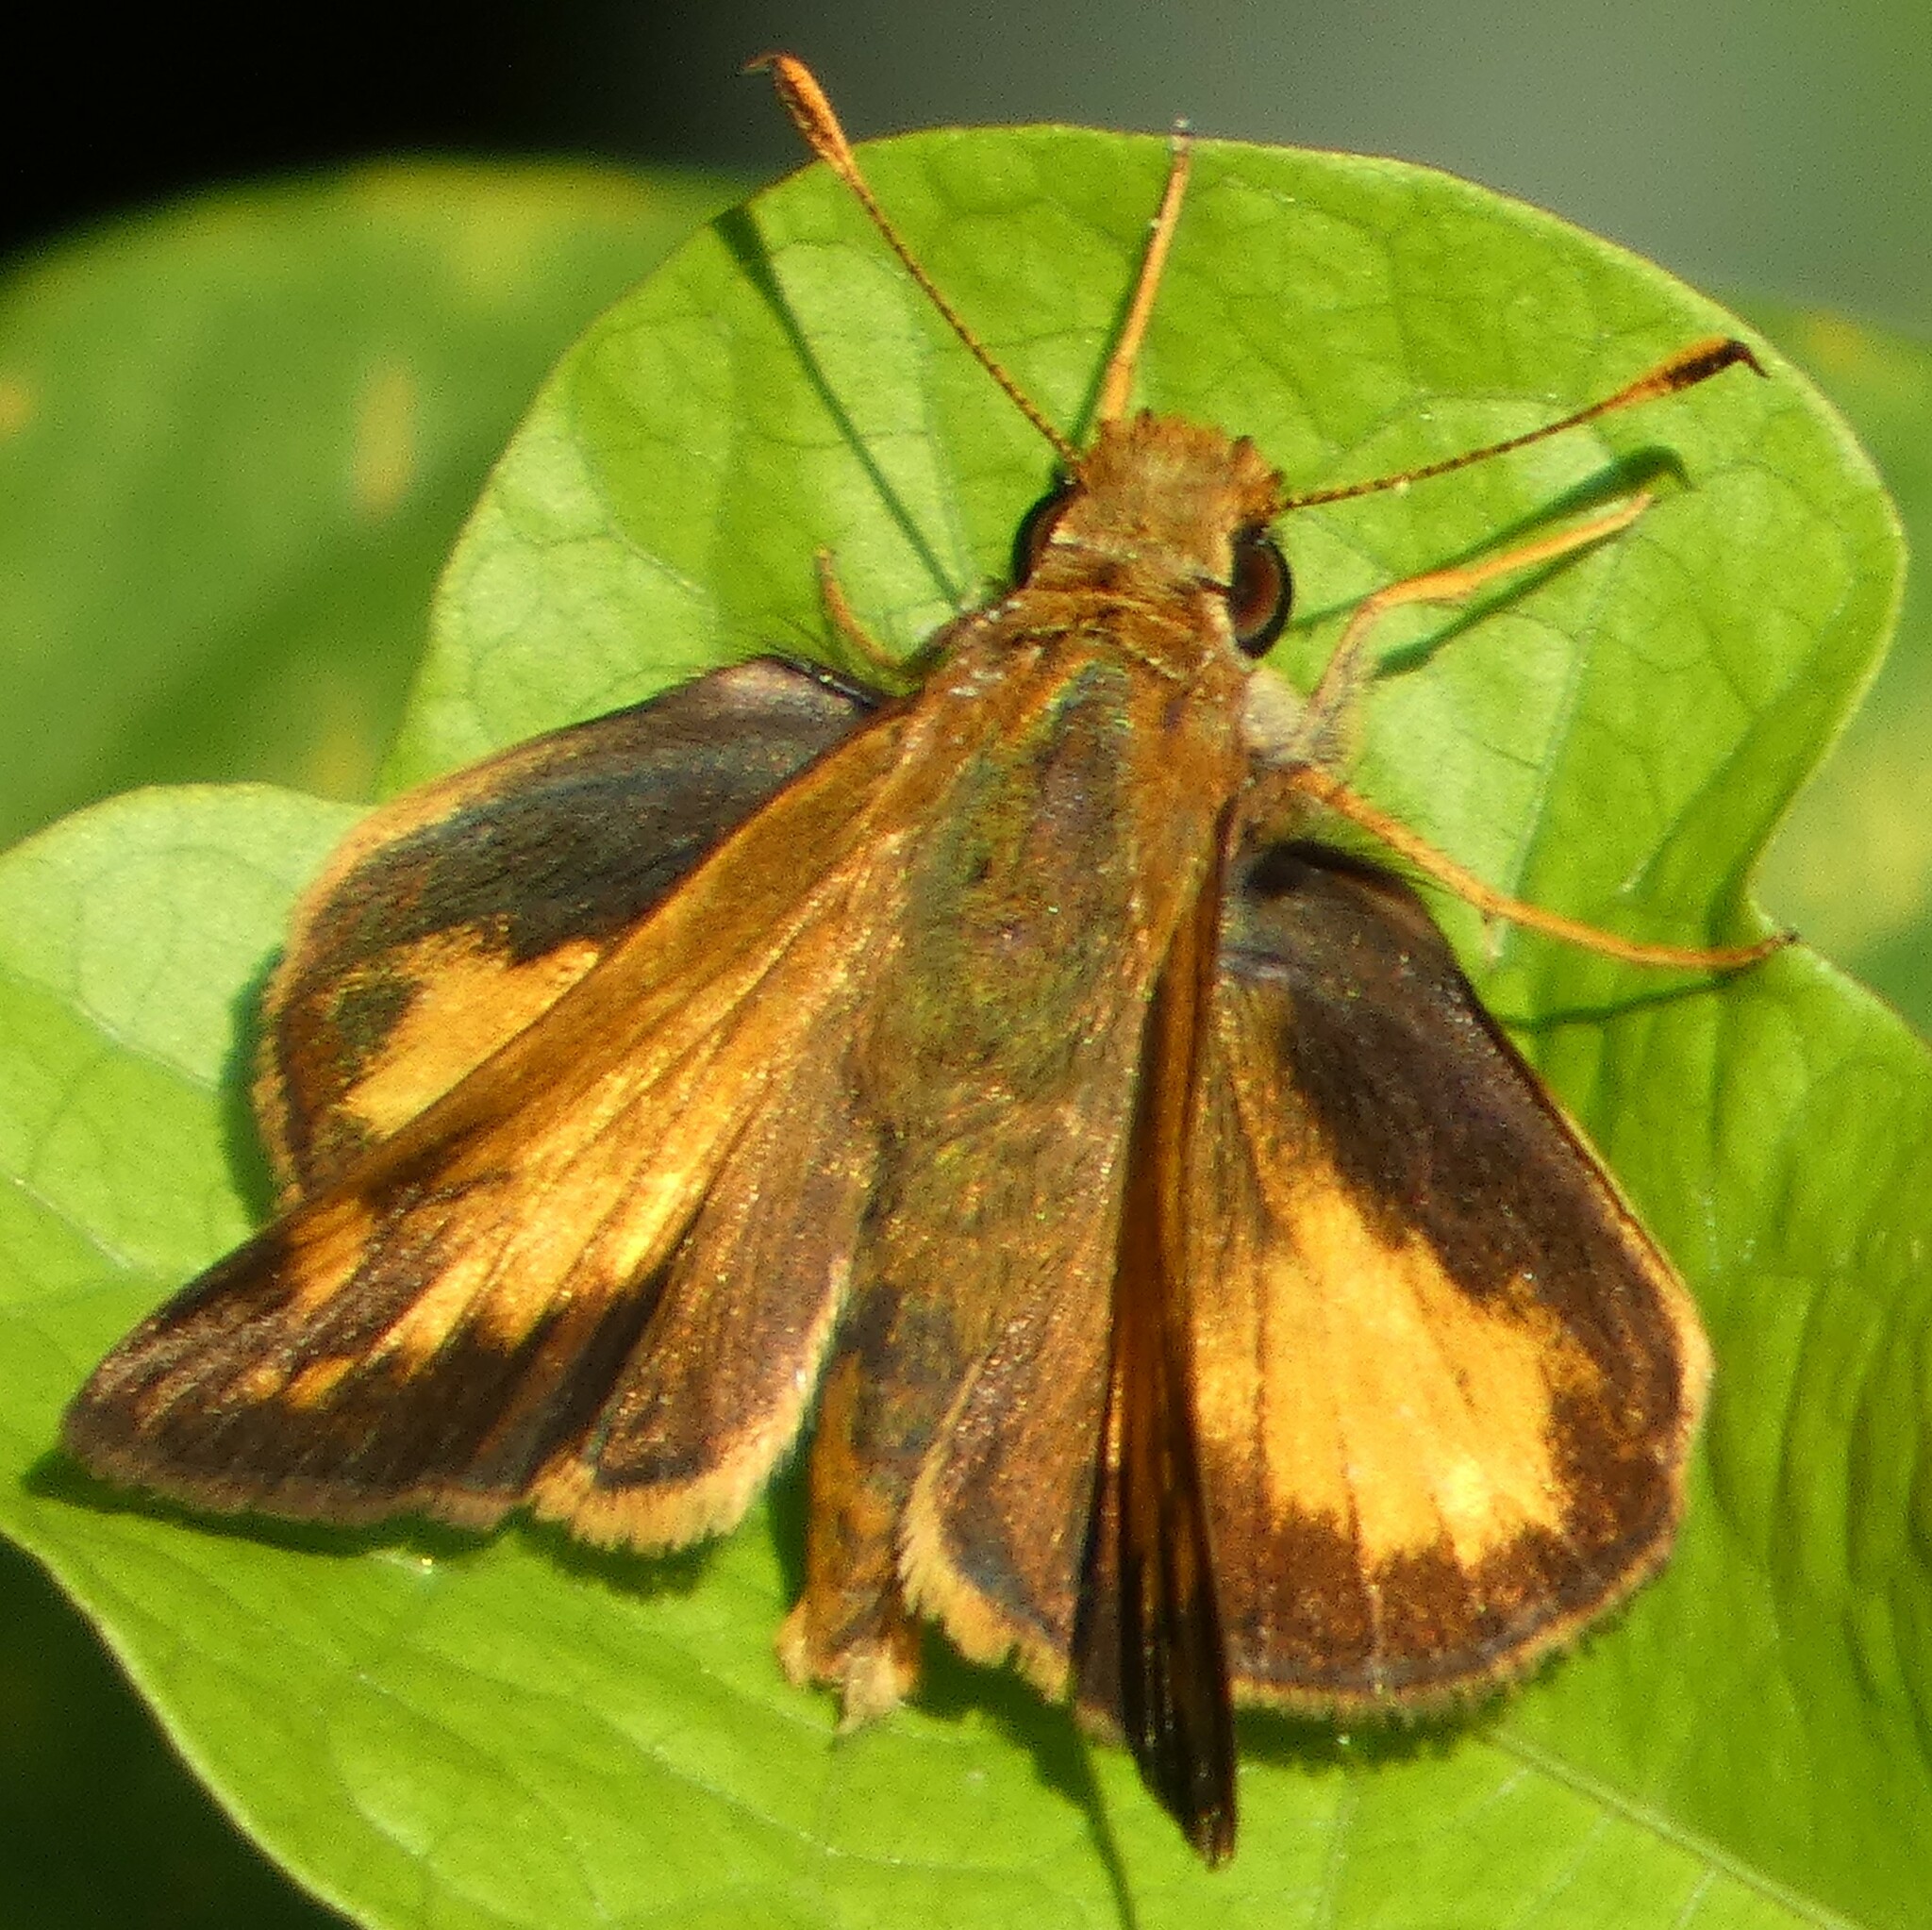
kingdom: Animalia
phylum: Arthropoda
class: Insecta
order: Lepidoptera
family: Hesperiidae
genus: Lon
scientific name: Lon zabulon
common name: Zabulon skipper
